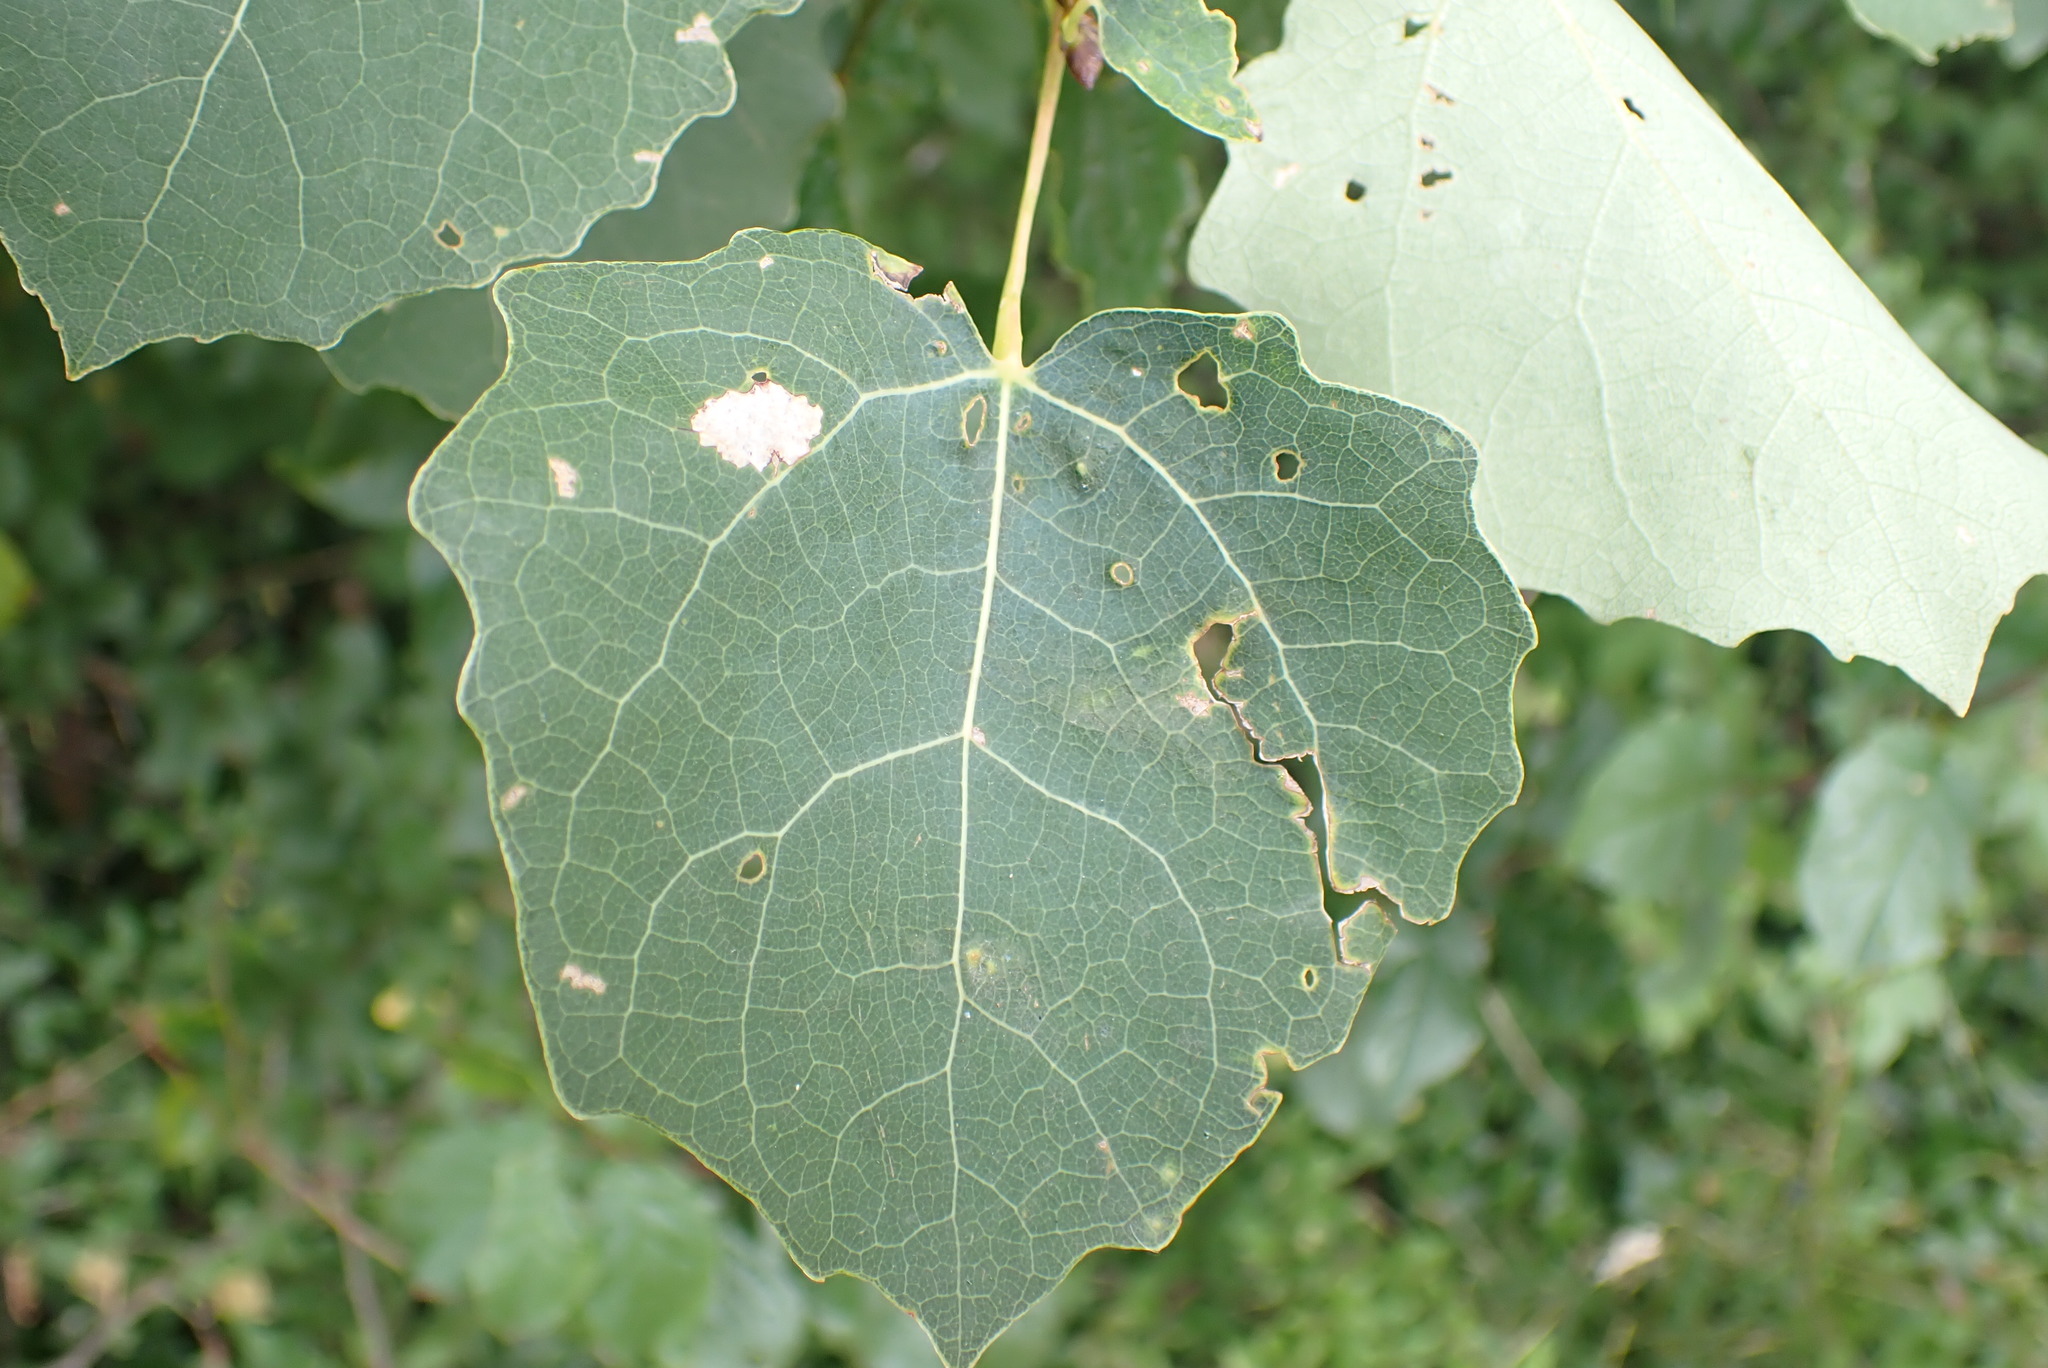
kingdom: Plantae
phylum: Tracheophyta
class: Magnoliopsida
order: Malpighiales
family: Salicaceae
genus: Populus
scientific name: Populus tremula
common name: European aspen
